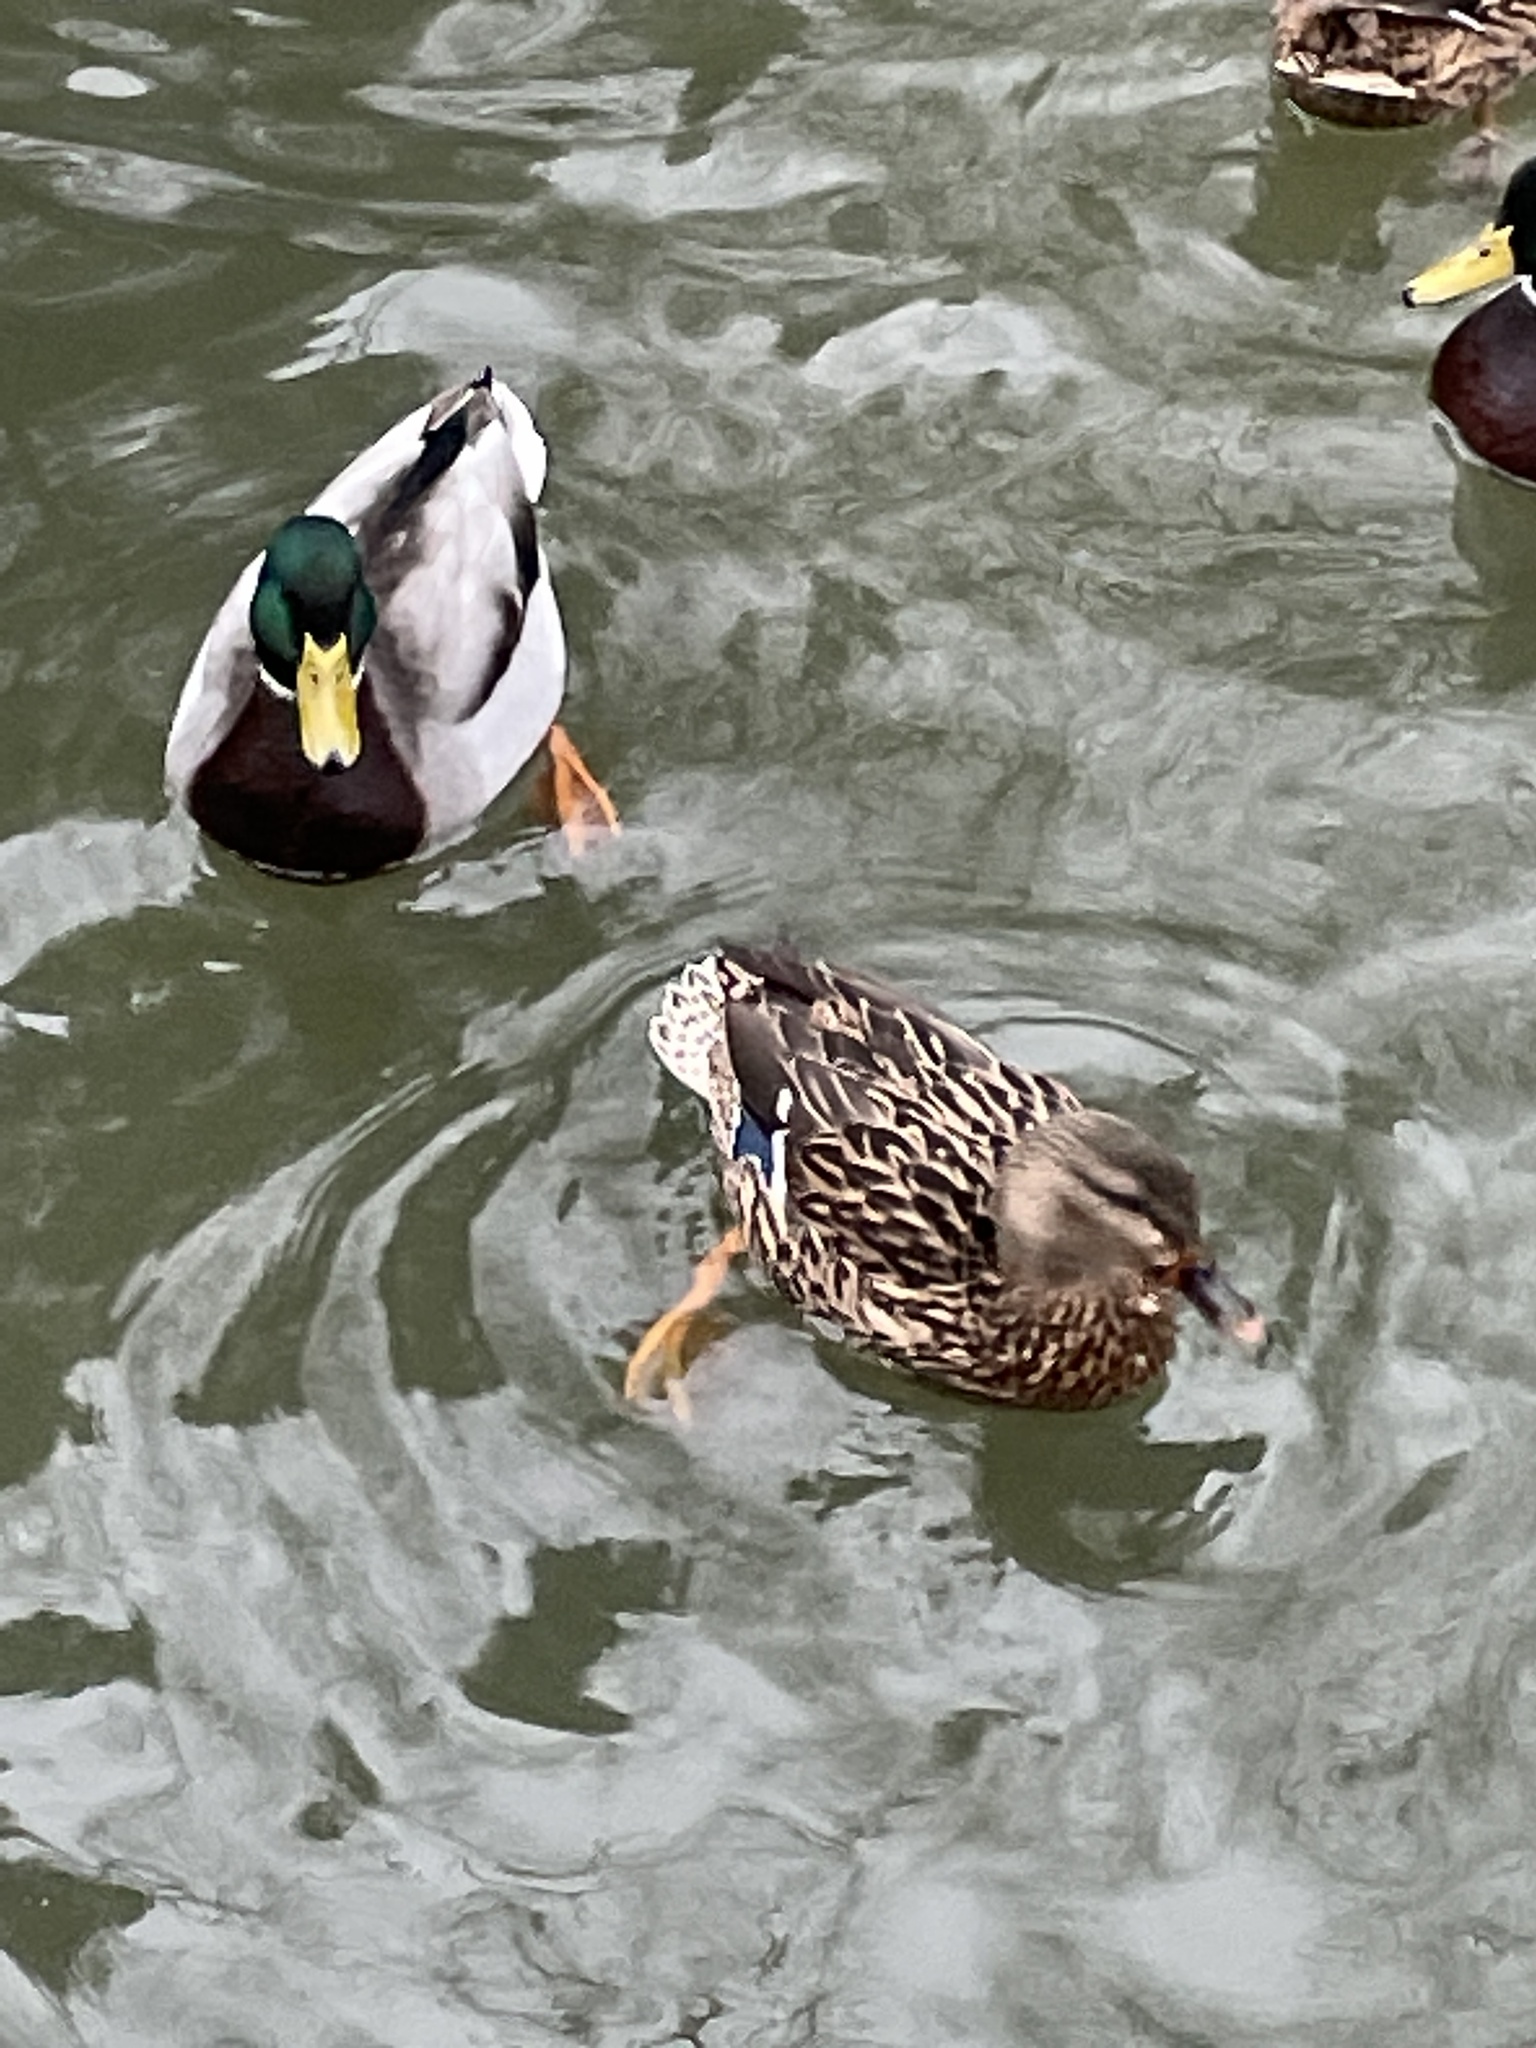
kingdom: Animalia
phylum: Chordata
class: Aves
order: Anseriformes
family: Anatidae
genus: Anas
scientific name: Anas platyrhynchos
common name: Mallard
